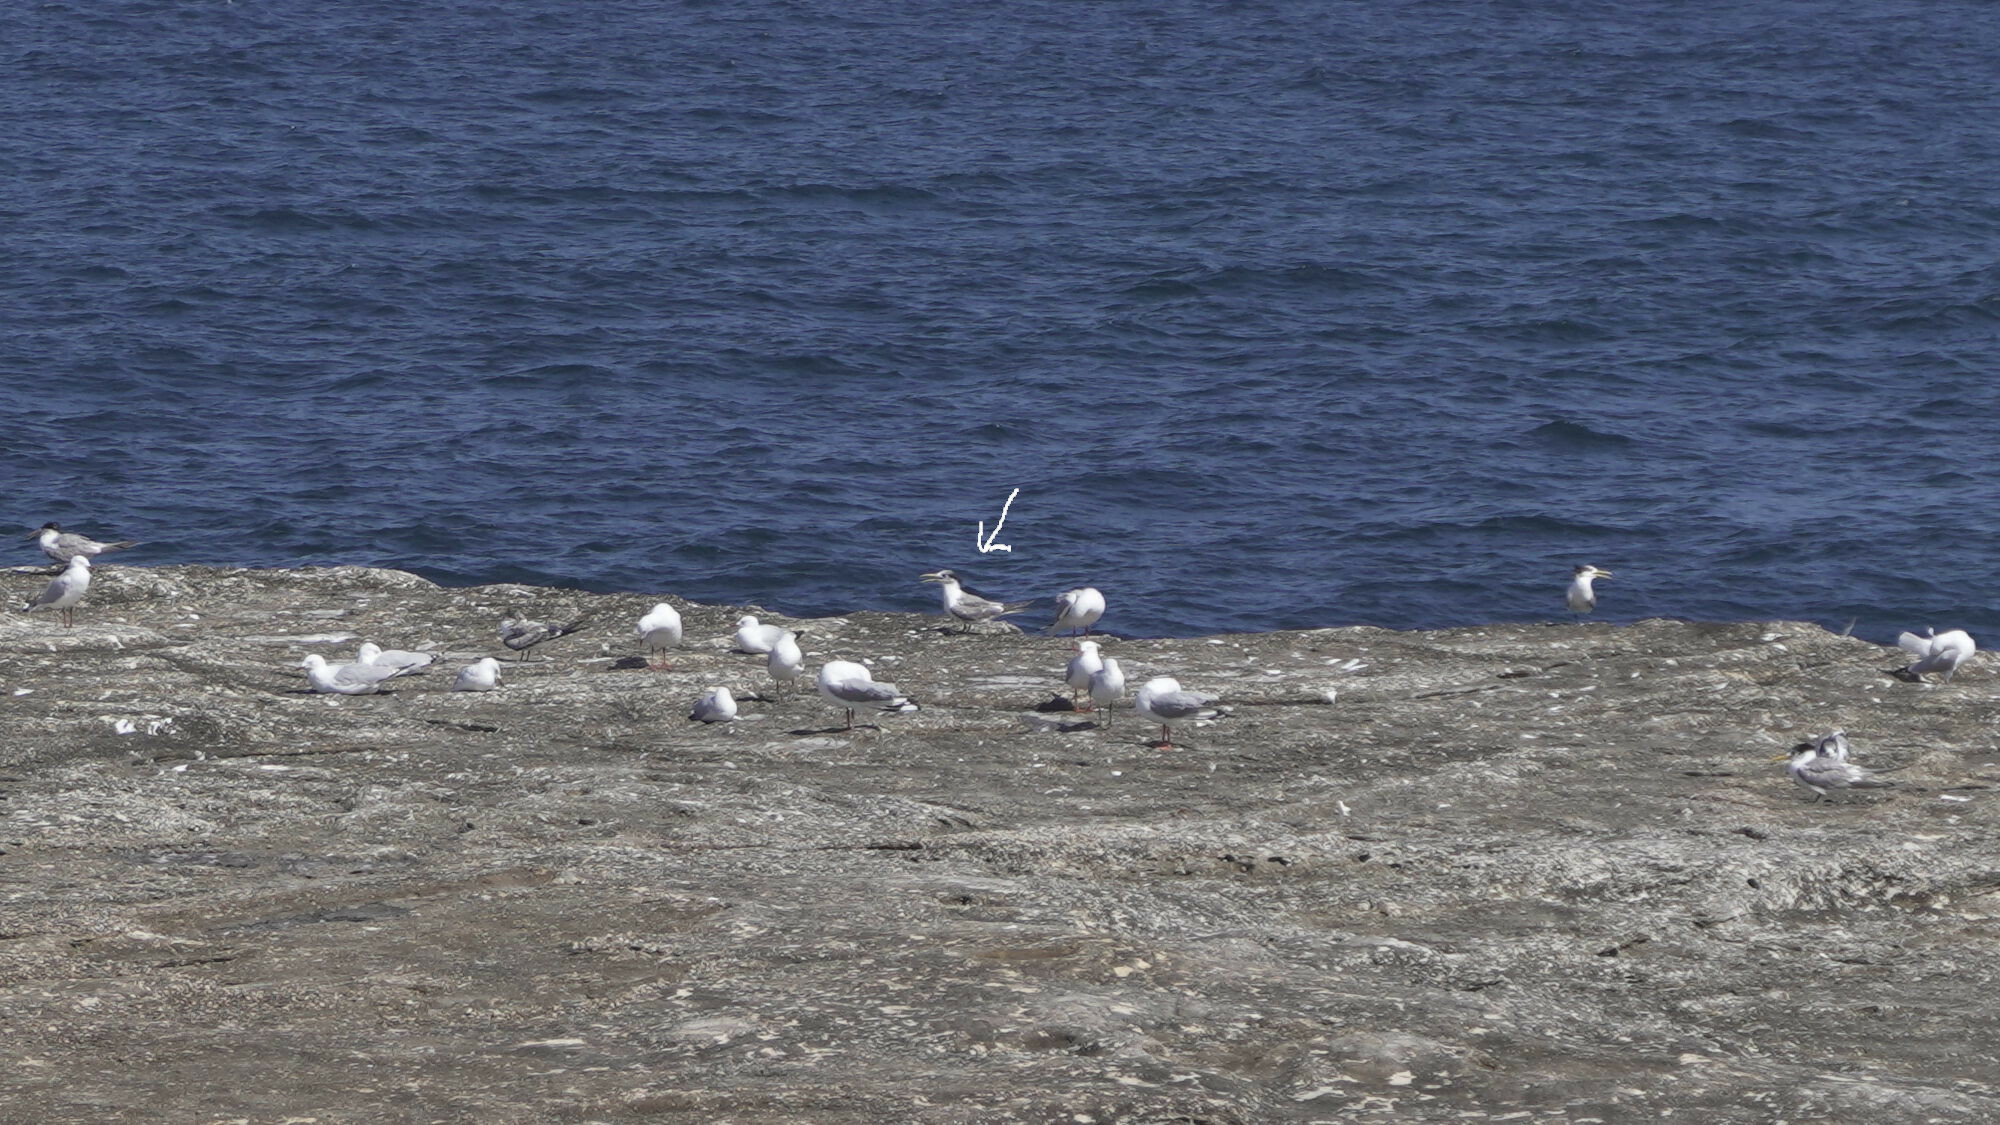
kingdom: Animalia
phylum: Chordata
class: Aves
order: Charadriiformes
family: Laridae
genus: Thalasseus
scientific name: Thalasseus bergii
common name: Greater crested tern
